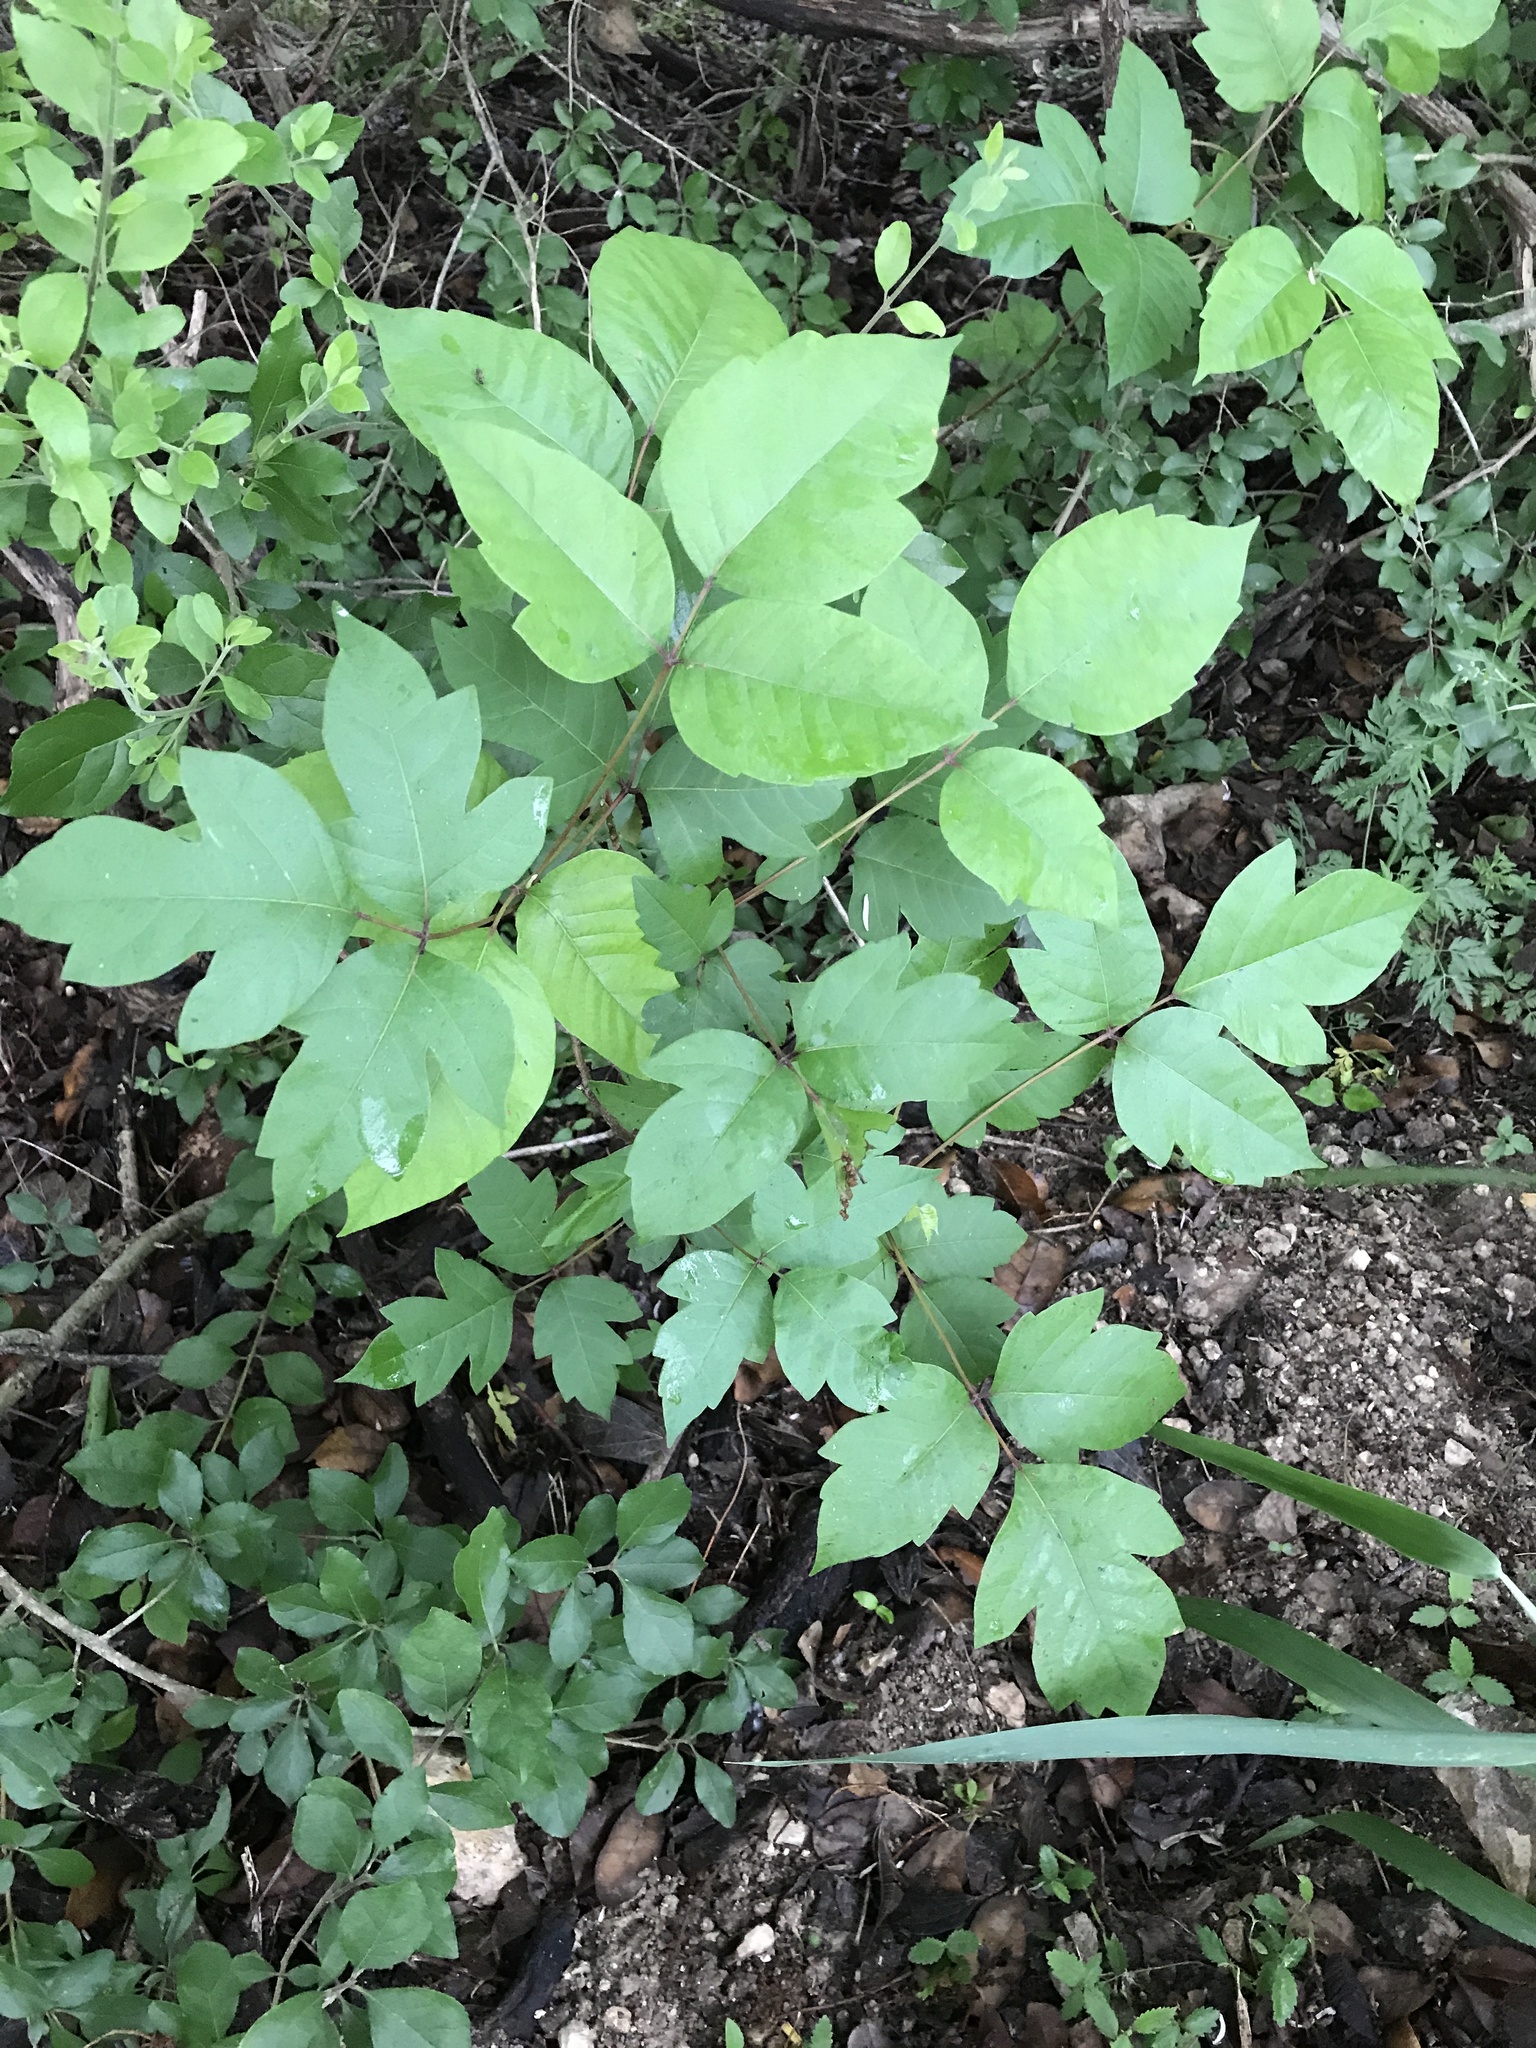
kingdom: Plantae
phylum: Tracheophyta
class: Magnoliopsida
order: Sapindales
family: Anacardiaceae
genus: Toxicodendron
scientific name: Toxicodendron radicans
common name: Poison ivy
